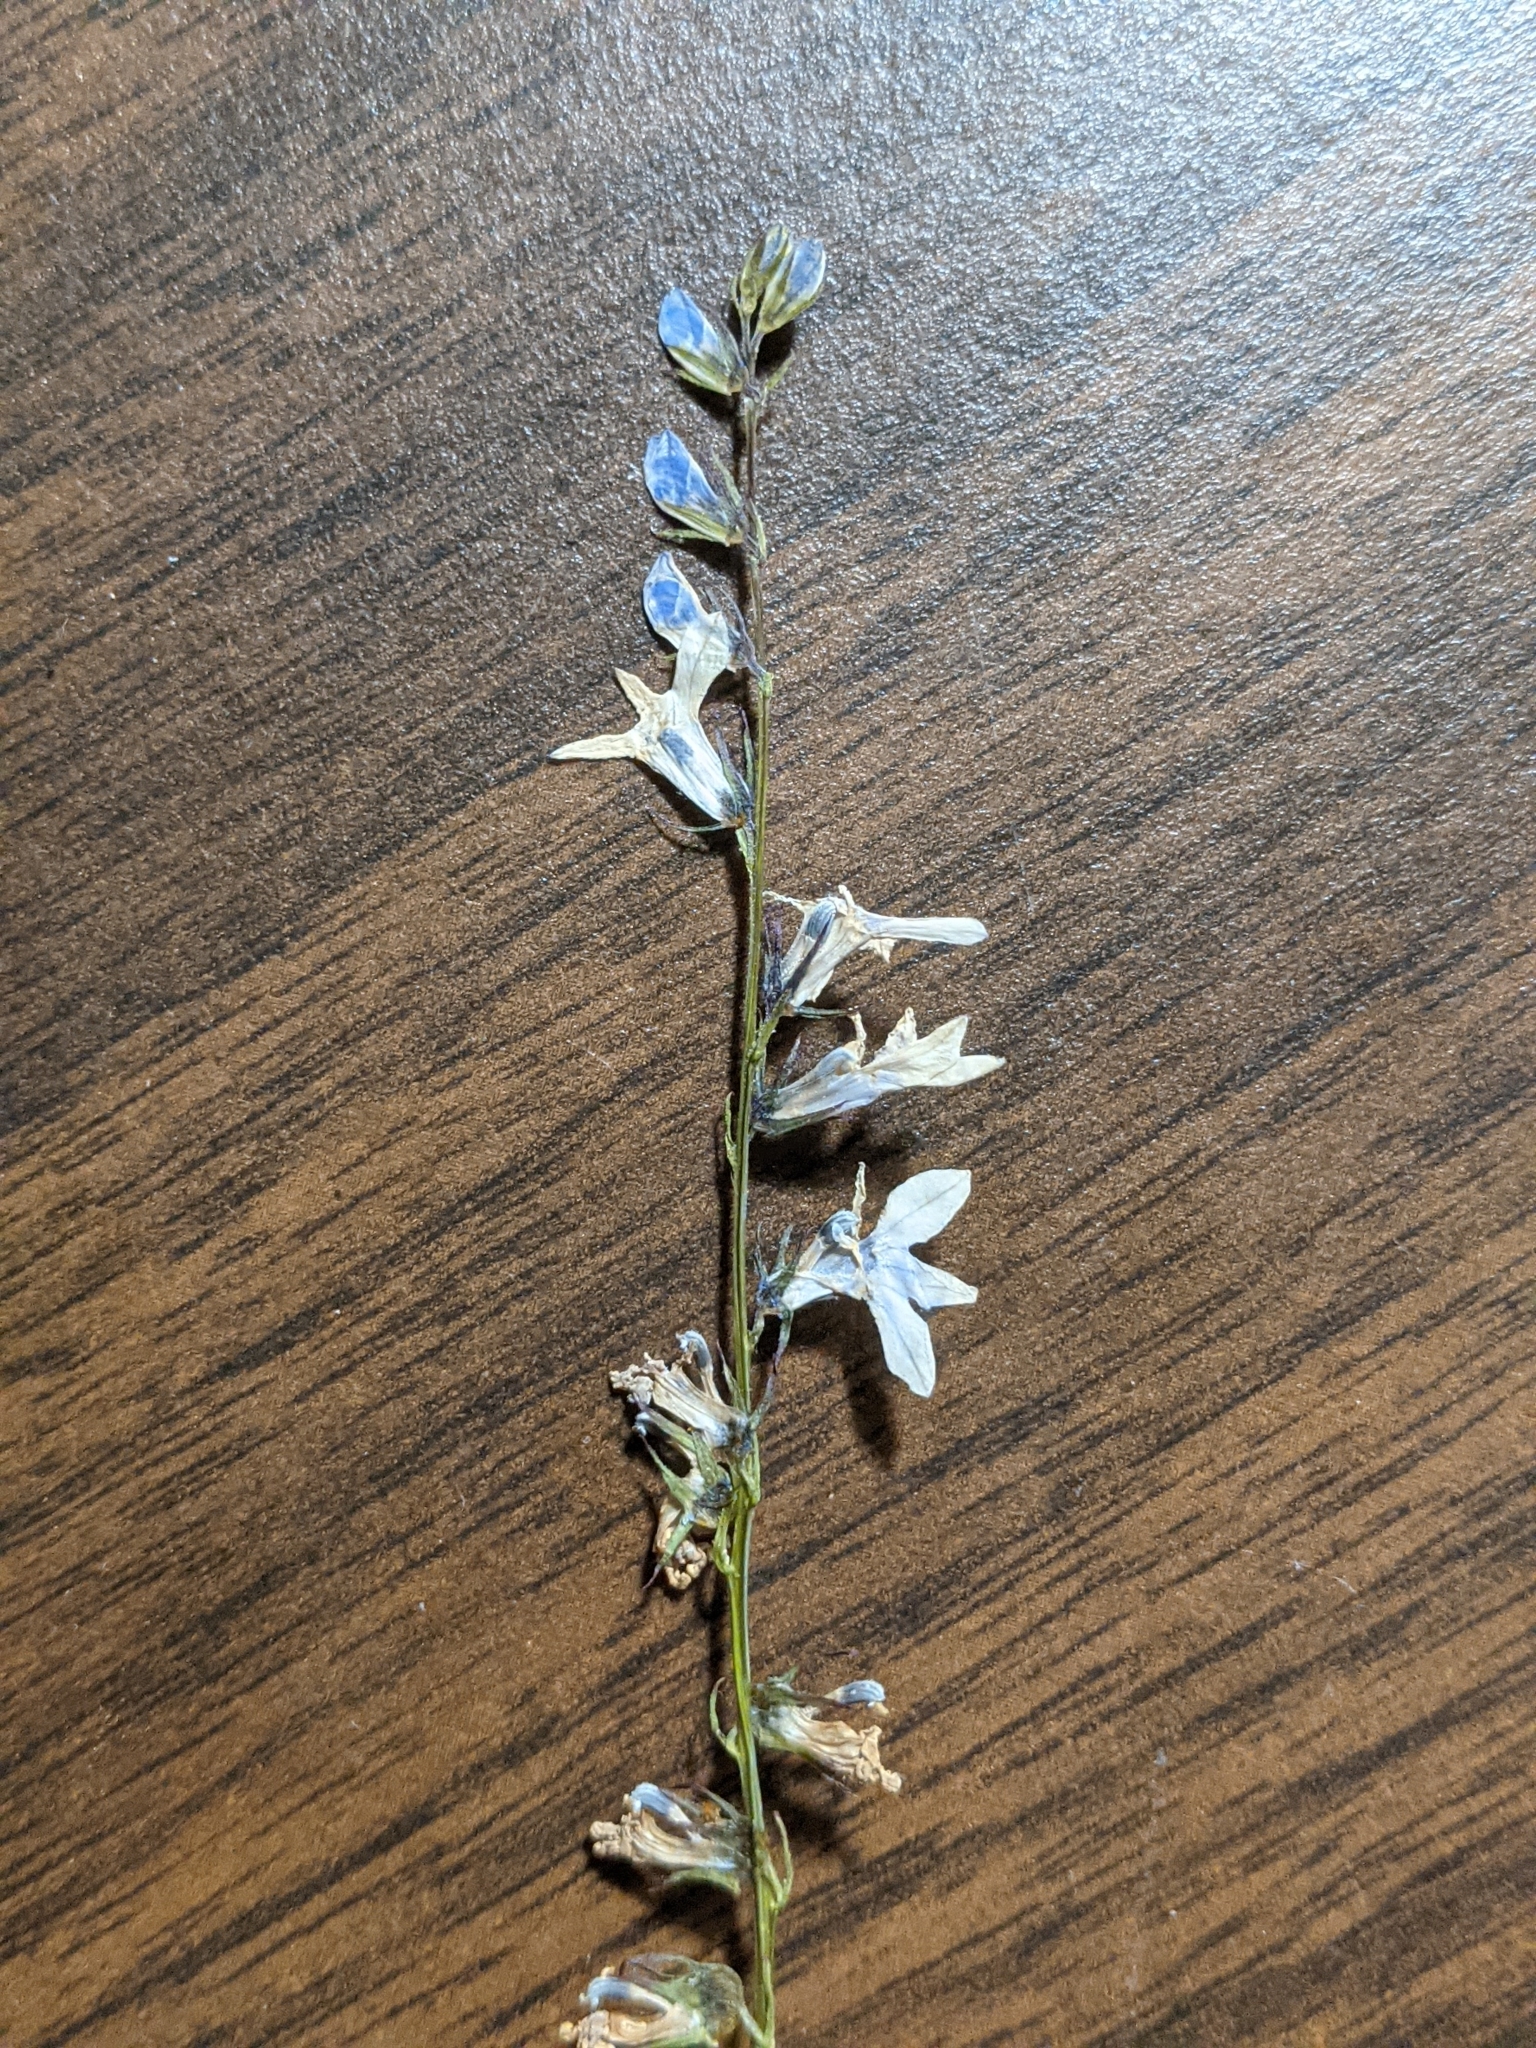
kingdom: Plantae
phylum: Tracheophyta
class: Magnoliopsida
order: Asterales
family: Campanulaceae
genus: Lobelia
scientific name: Lobelia appendiculata
